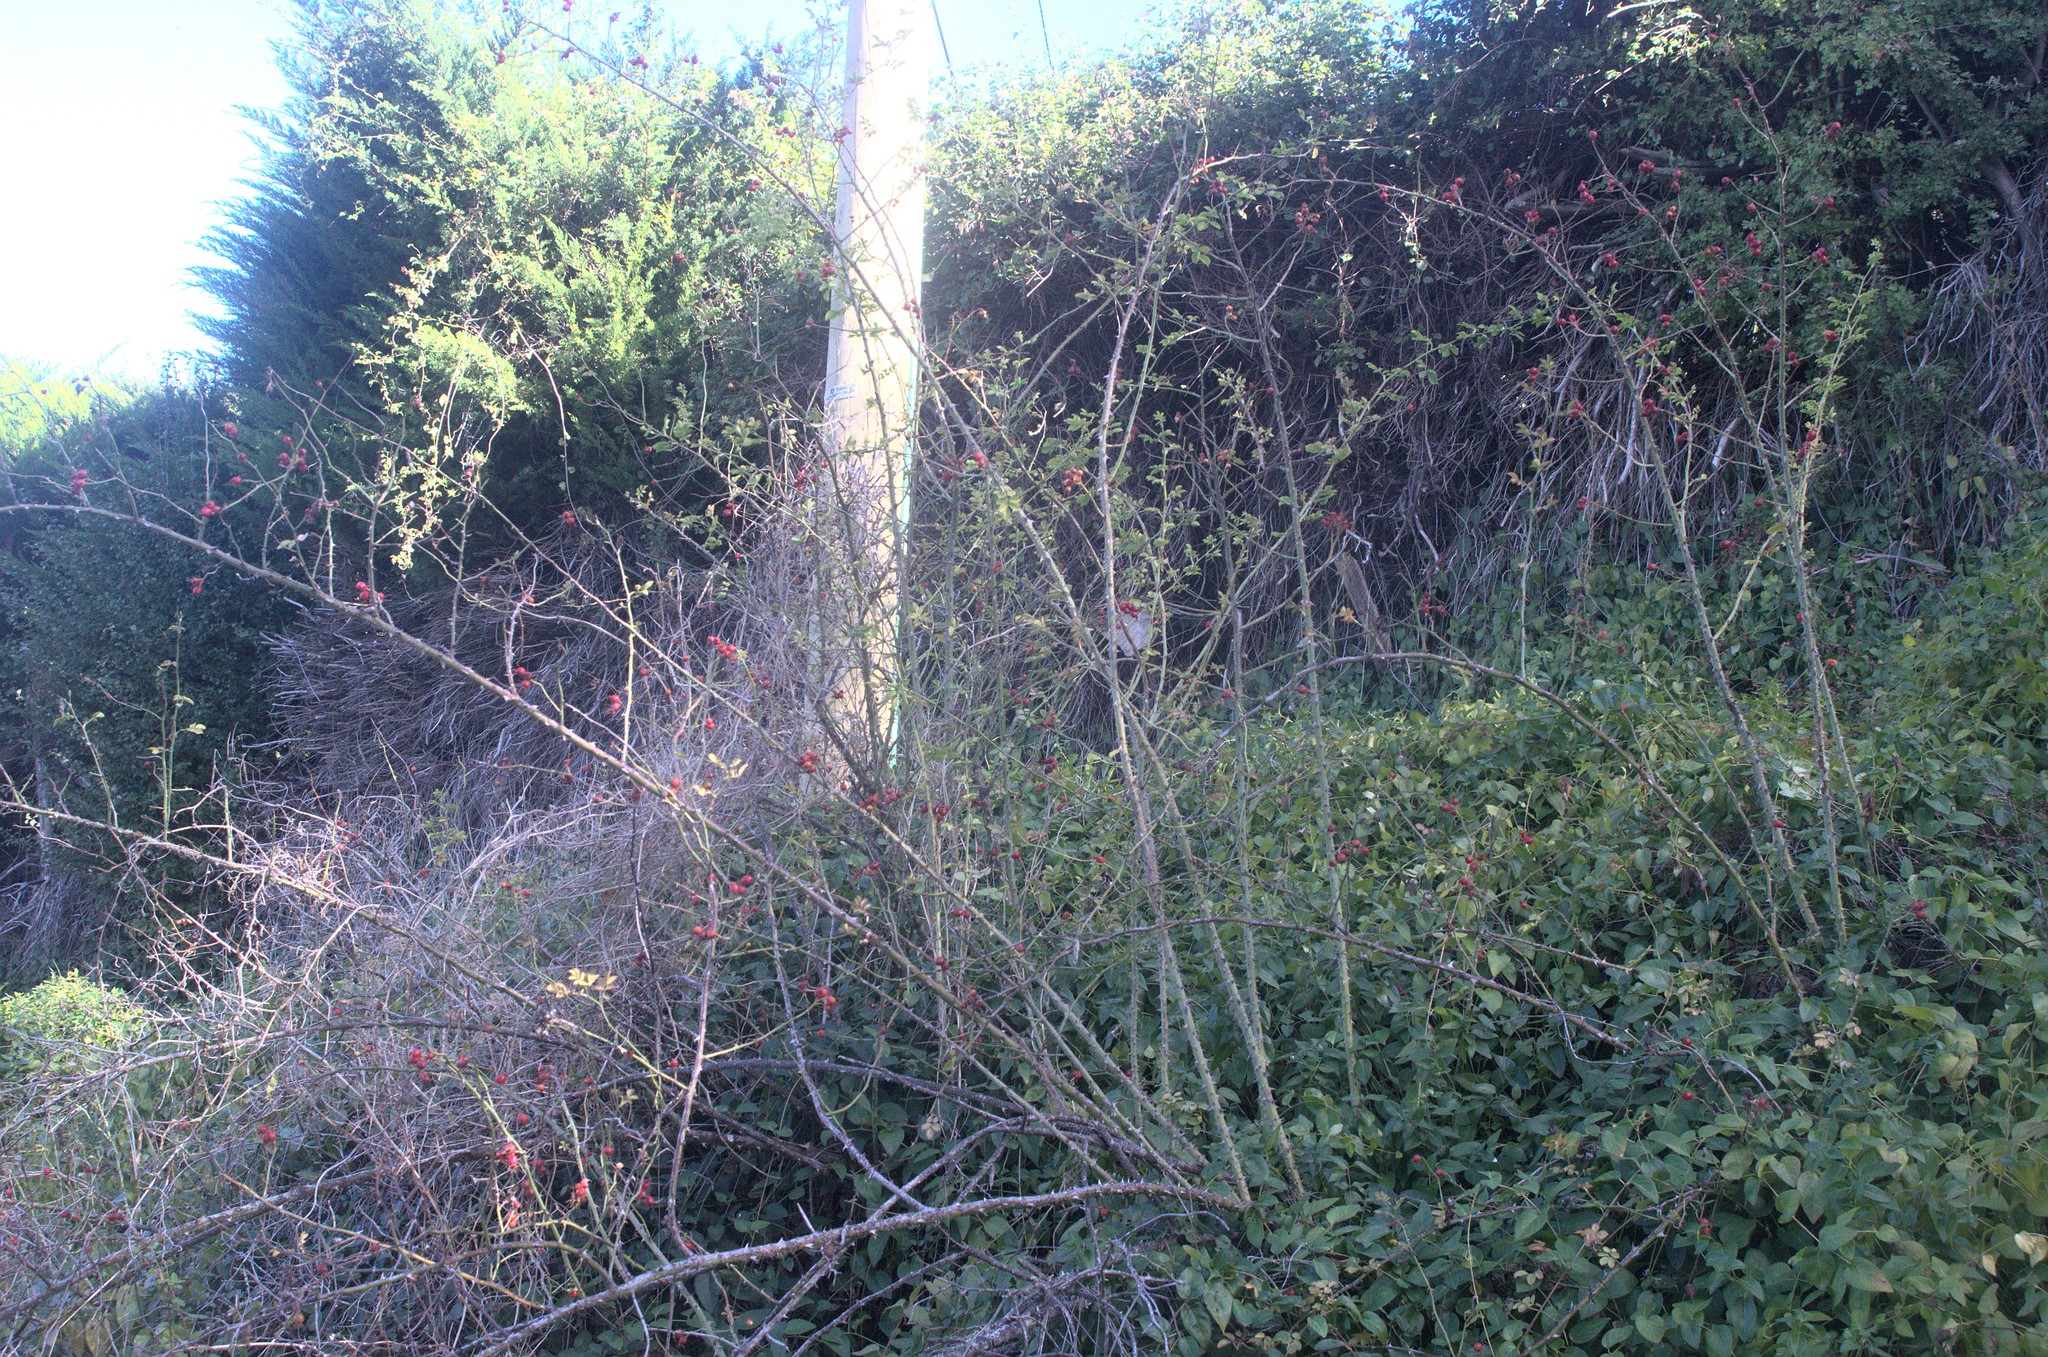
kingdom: Plantae
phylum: Tracheophyta
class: Magnoliopsida
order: Rosales
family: Rosaceae
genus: Rosa
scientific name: Rosa rubiginosa
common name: Sweet-briar
